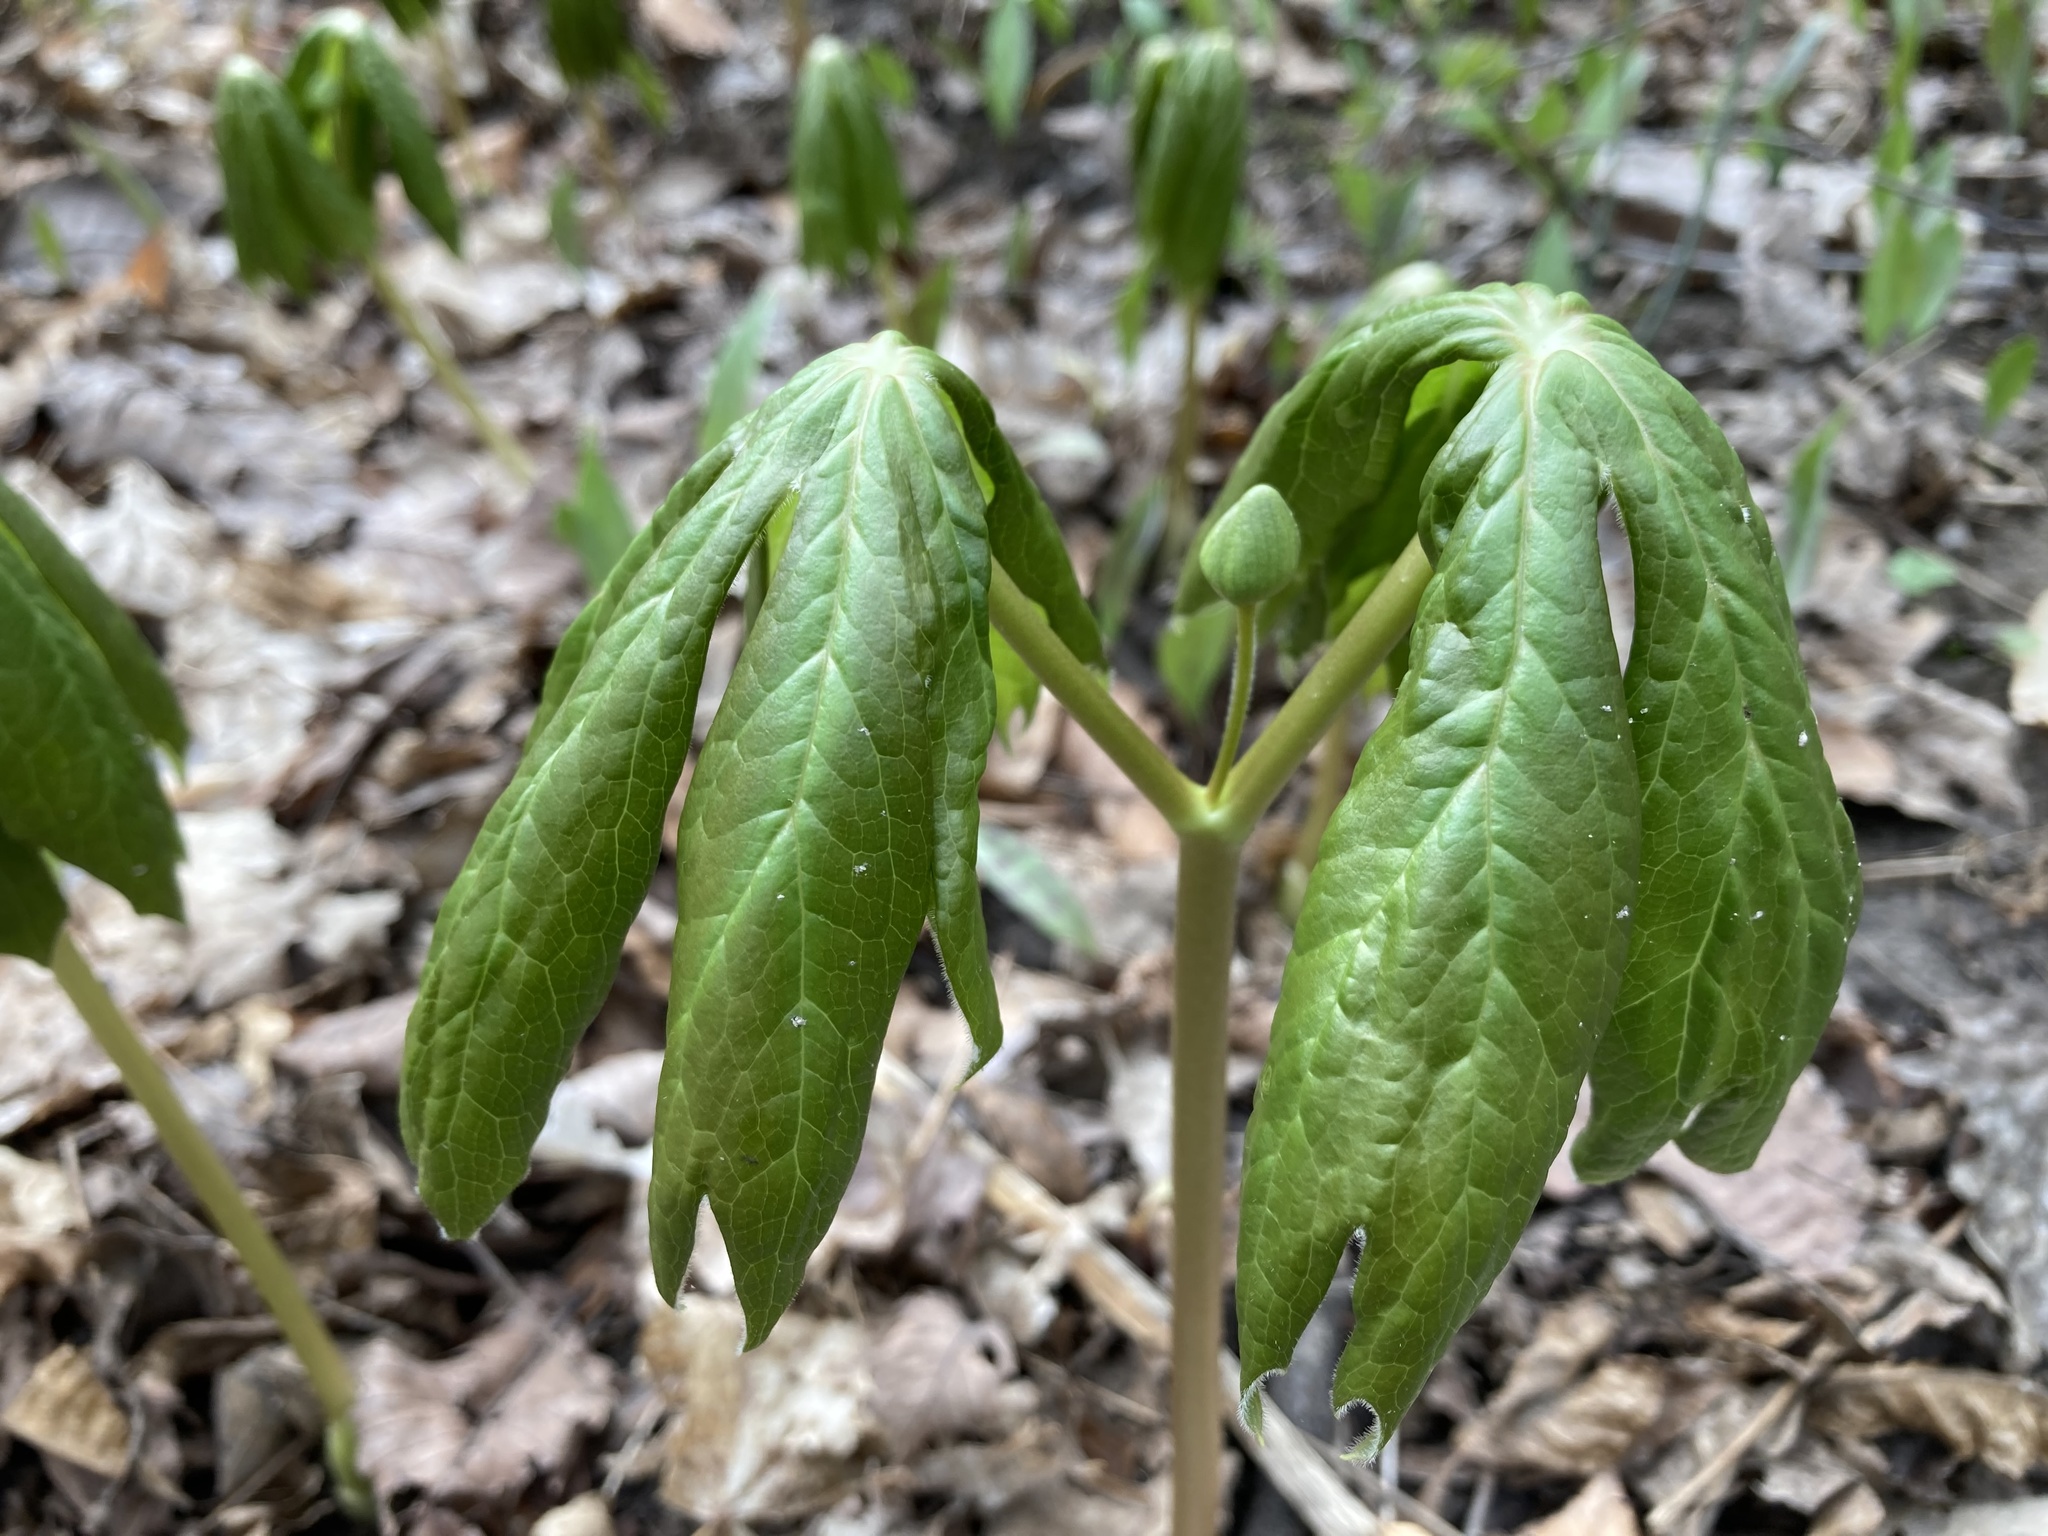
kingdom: Plantae
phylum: Tracheophyta
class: Magnoliopsida
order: Ranunculales
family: Berberidaceae
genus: Podophyllum
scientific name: Podophyllum peltatum
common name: Wild mandrake
